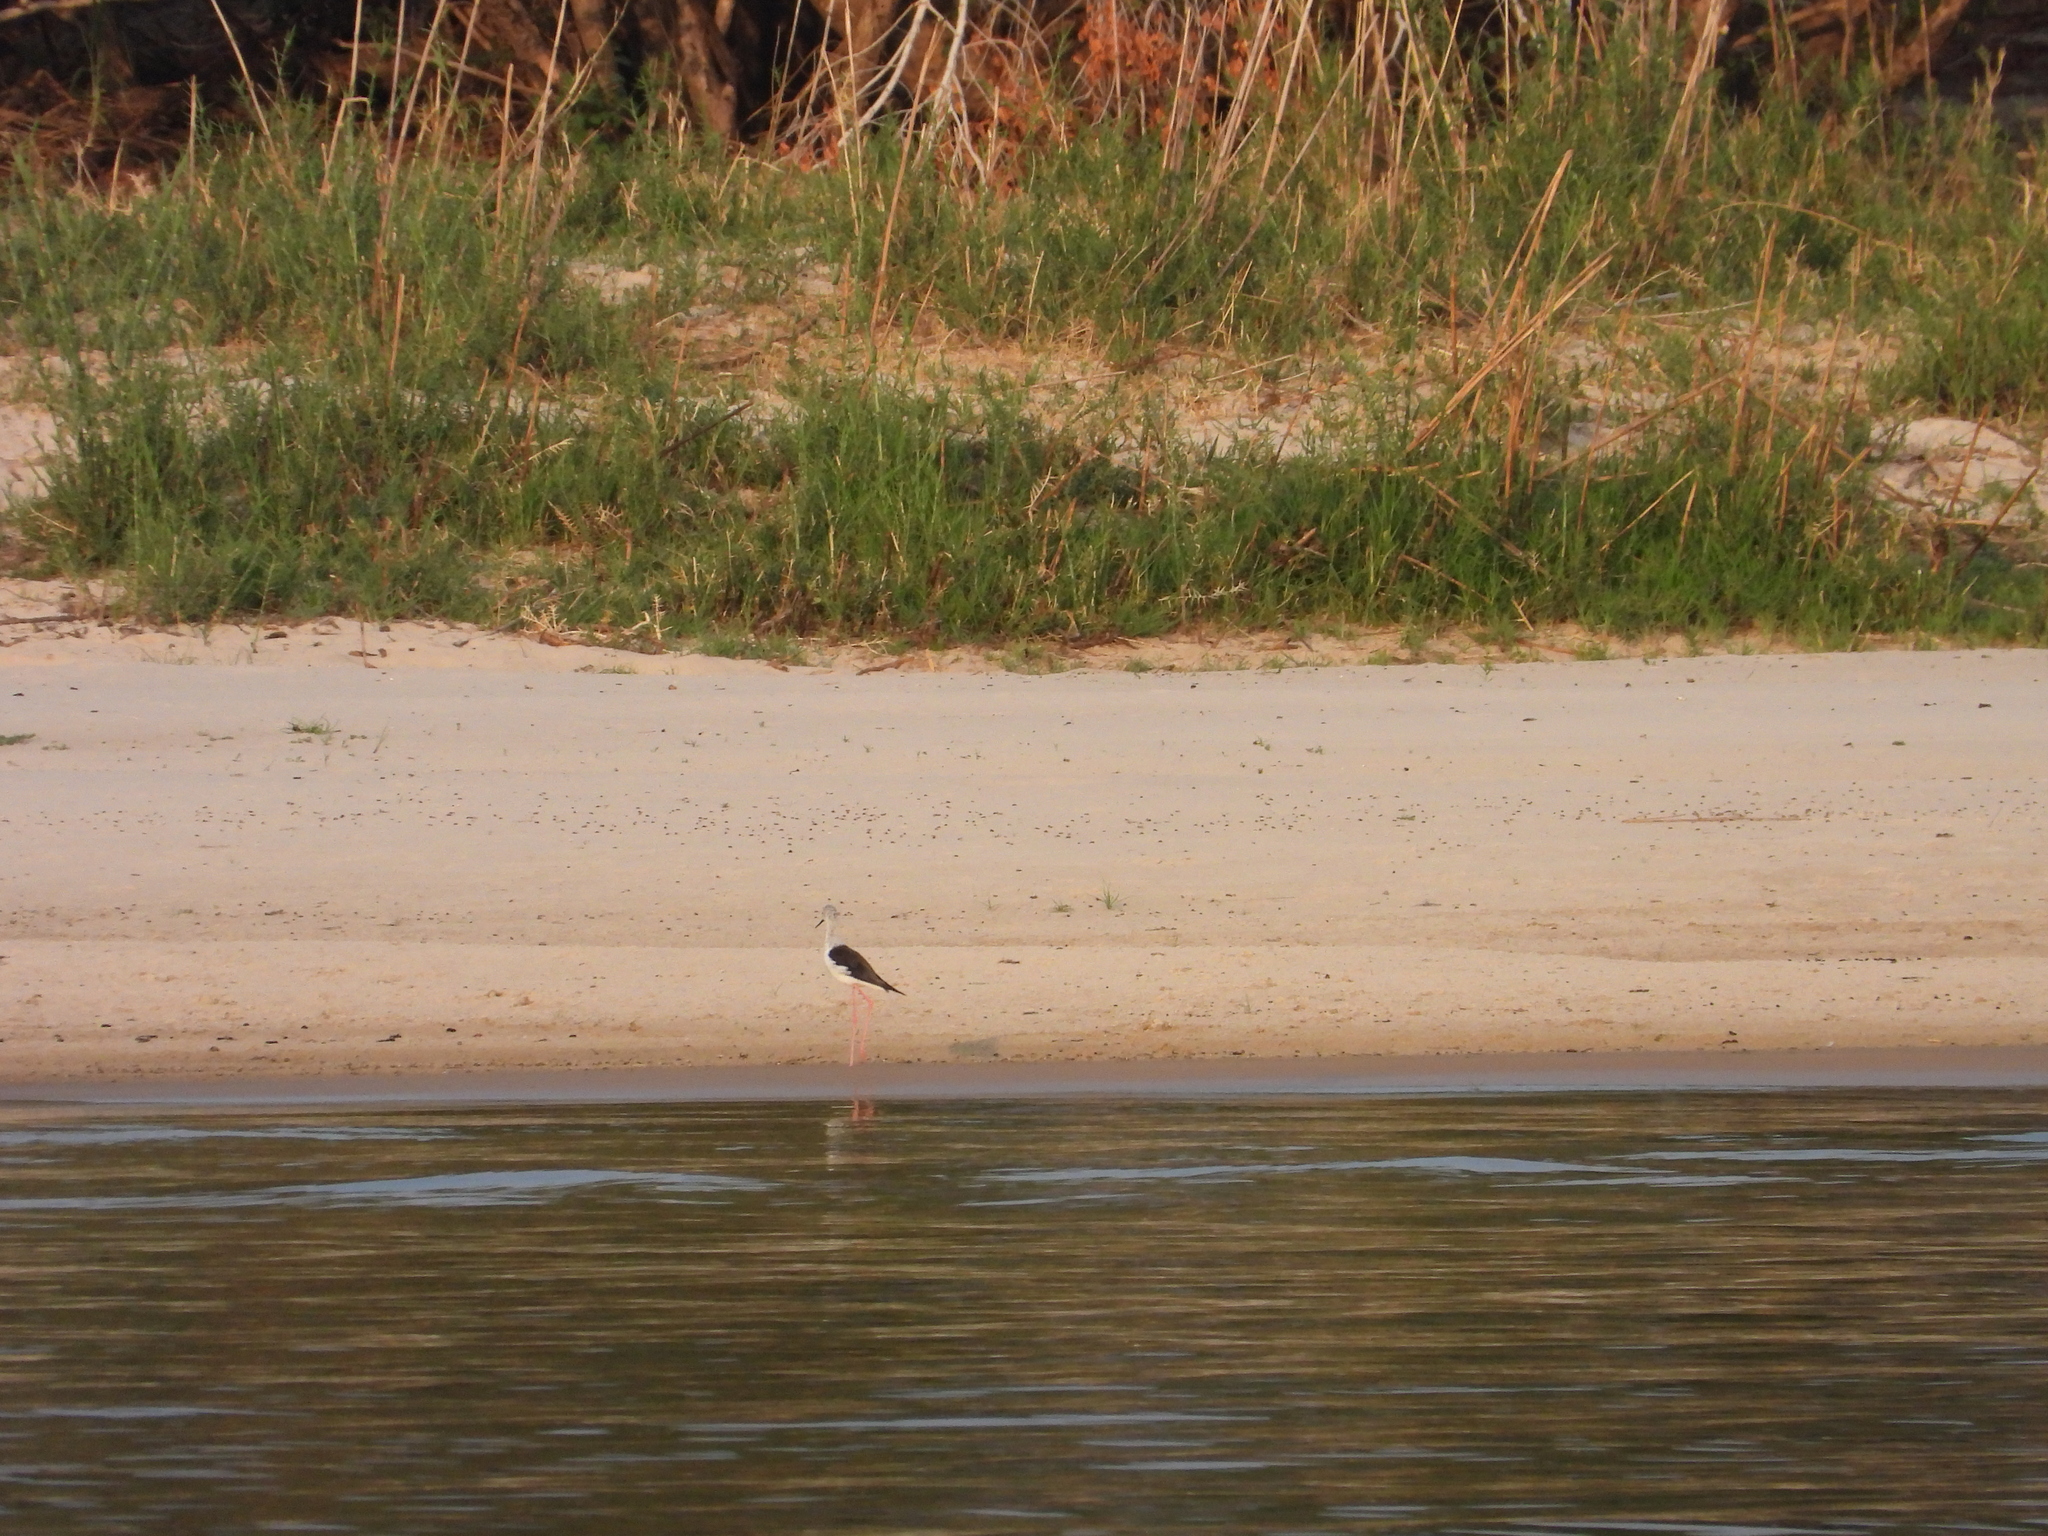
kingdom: Animalia
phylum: Chordata
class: Aves
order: Charadriiformes
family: Recurvirostridae
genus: Himantopus
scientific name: Himantopus himantopus
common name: Black-winged stilt
